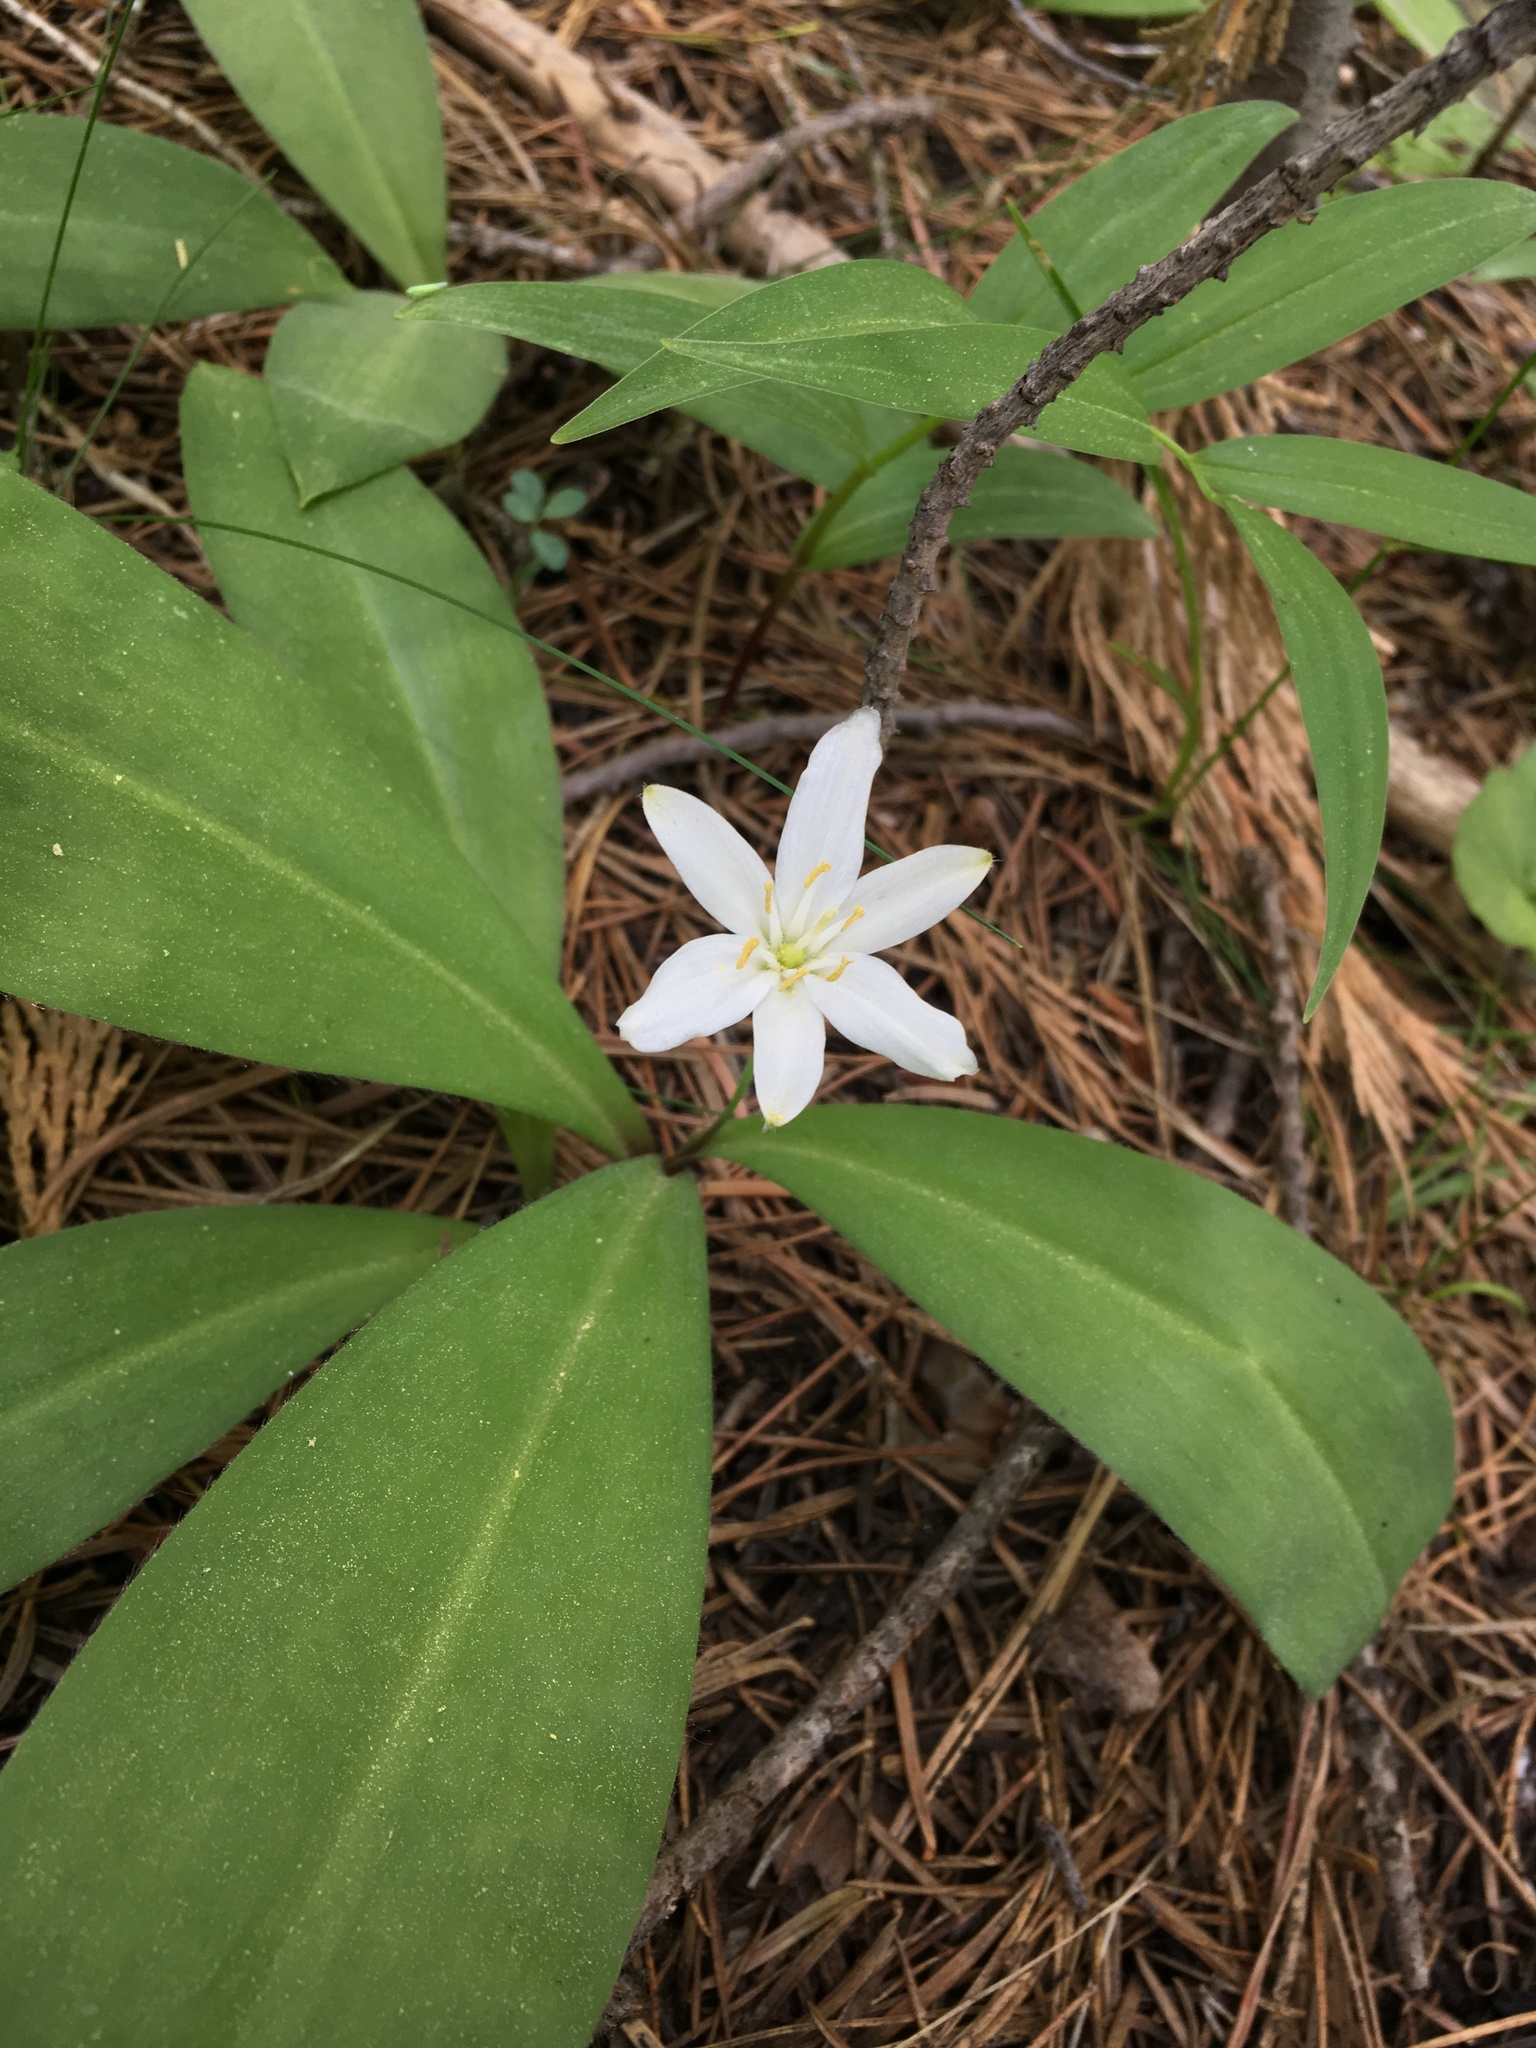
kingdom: Plantae
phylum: Tracheophyta
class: Liliopsida
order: Liliales
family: Liliaceae
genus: Clintonia
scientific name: Clintonia uniflora
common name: Queen's cup
